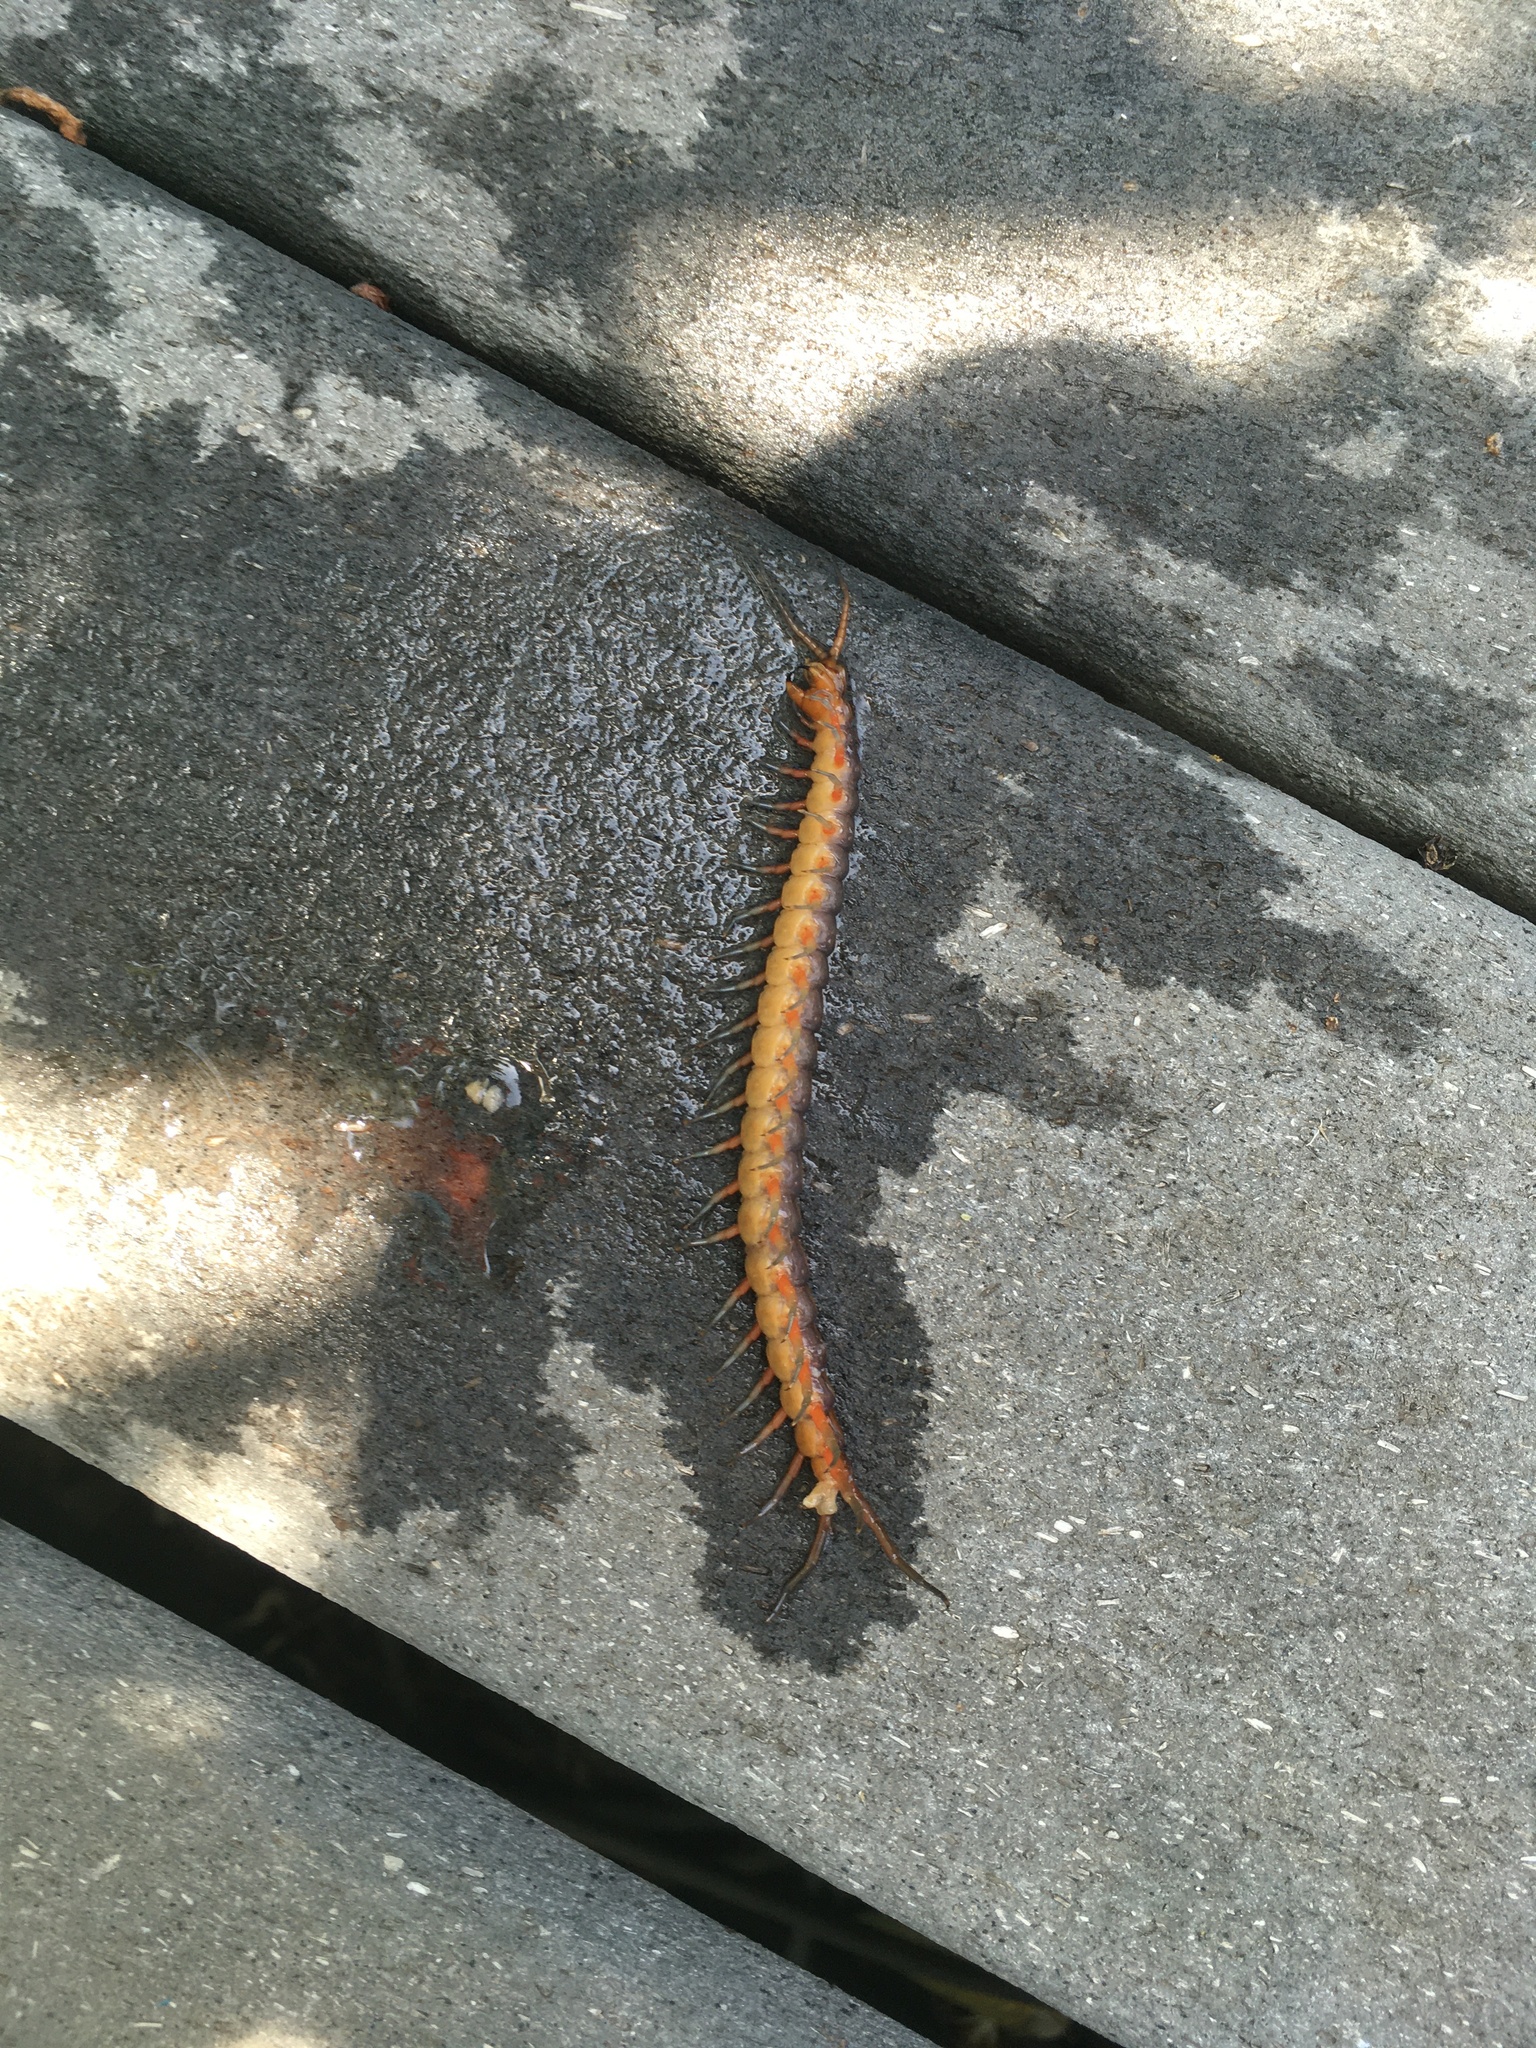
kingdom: Animalia
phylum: Arthropoda
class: Chilopoda
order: Scolopendromorpha
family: Scolopendridae
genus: Scolopendra
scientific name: Scolopendra subspinipes
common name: Centipede
